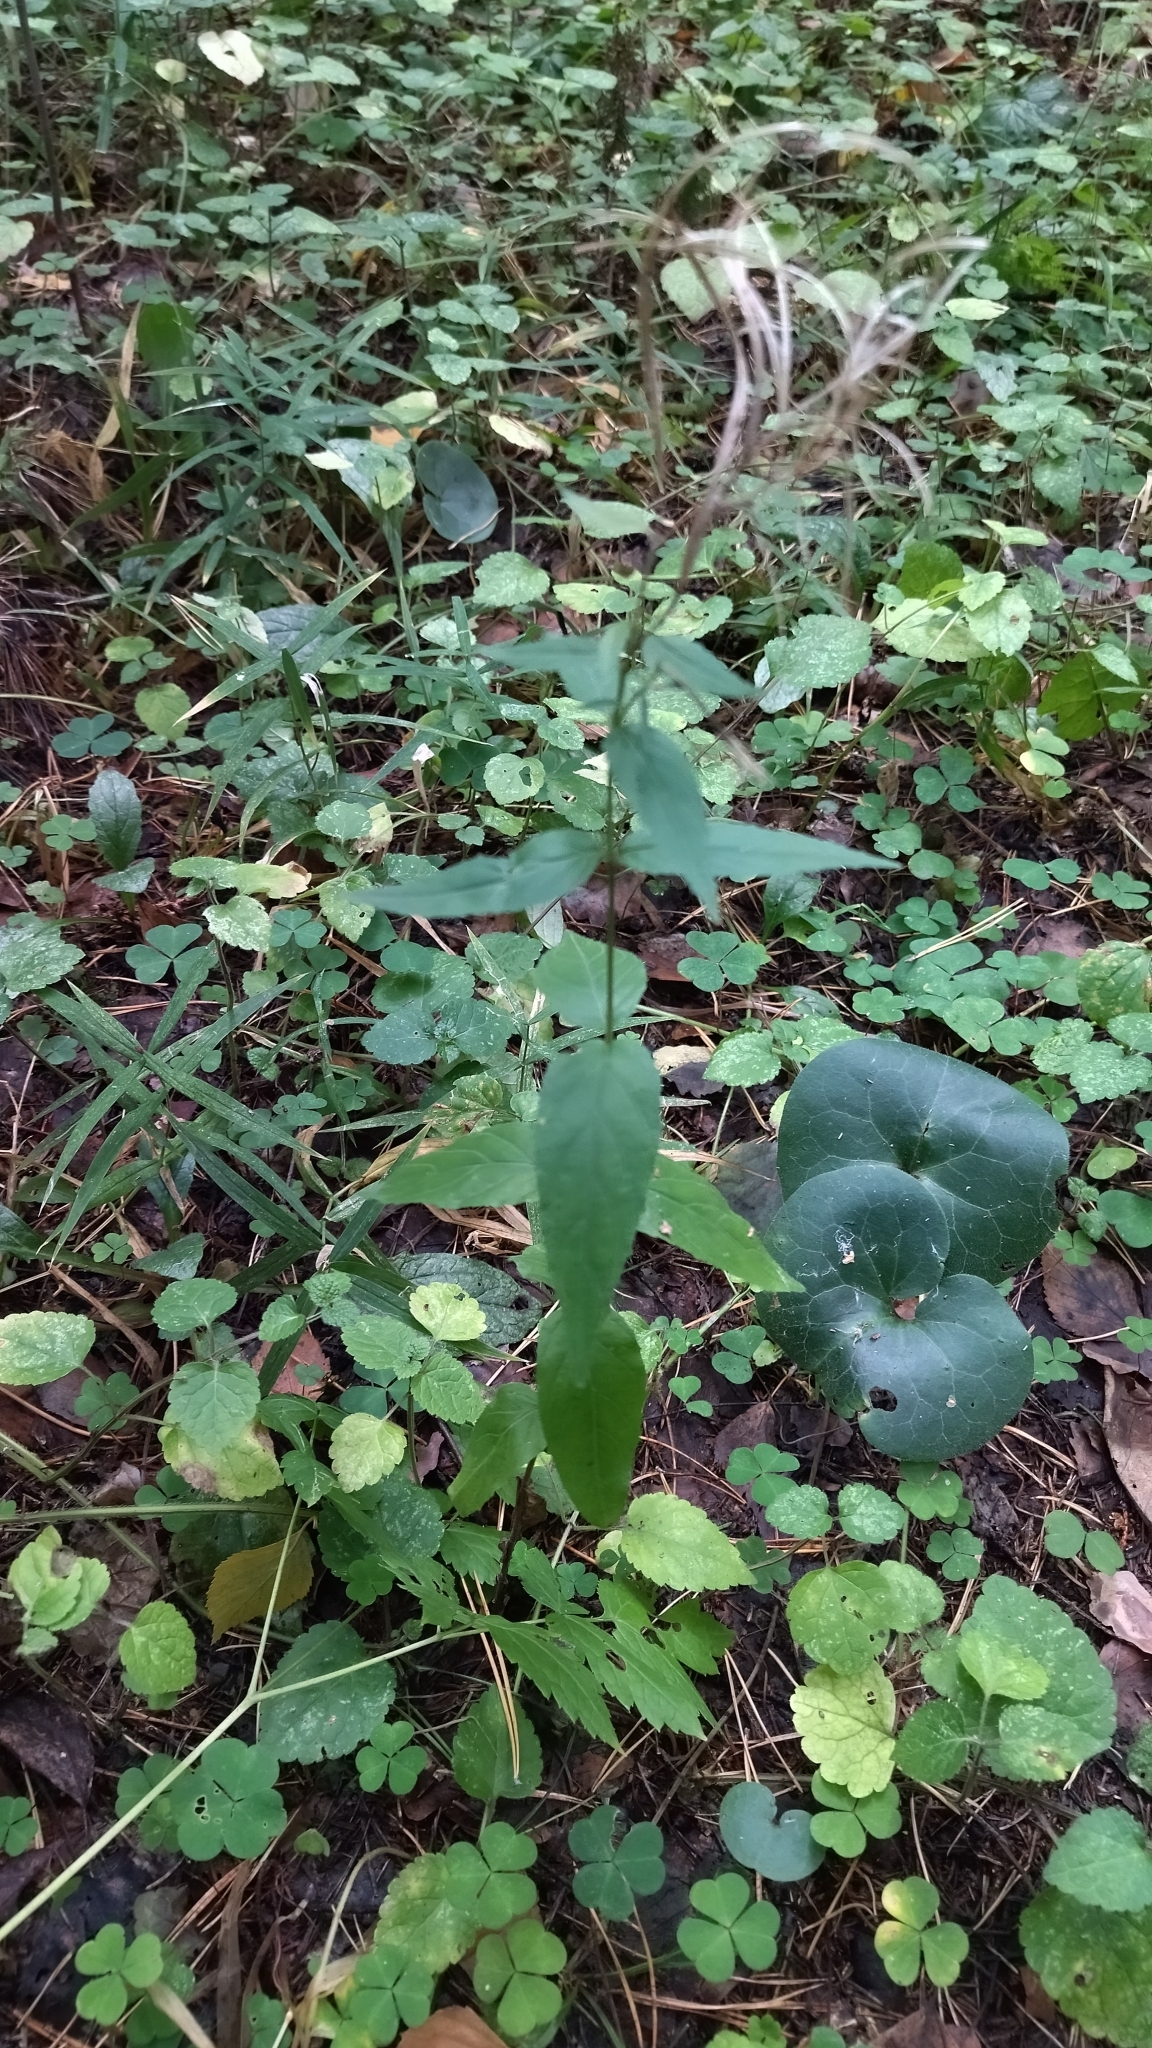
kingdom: Plantae
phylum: Tracheophyta
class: Magnoliopsida
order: Myrtales
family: Onagraceae
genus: Epilobium
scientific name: Epilobium montanum
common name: Broad-leaved willowherb
